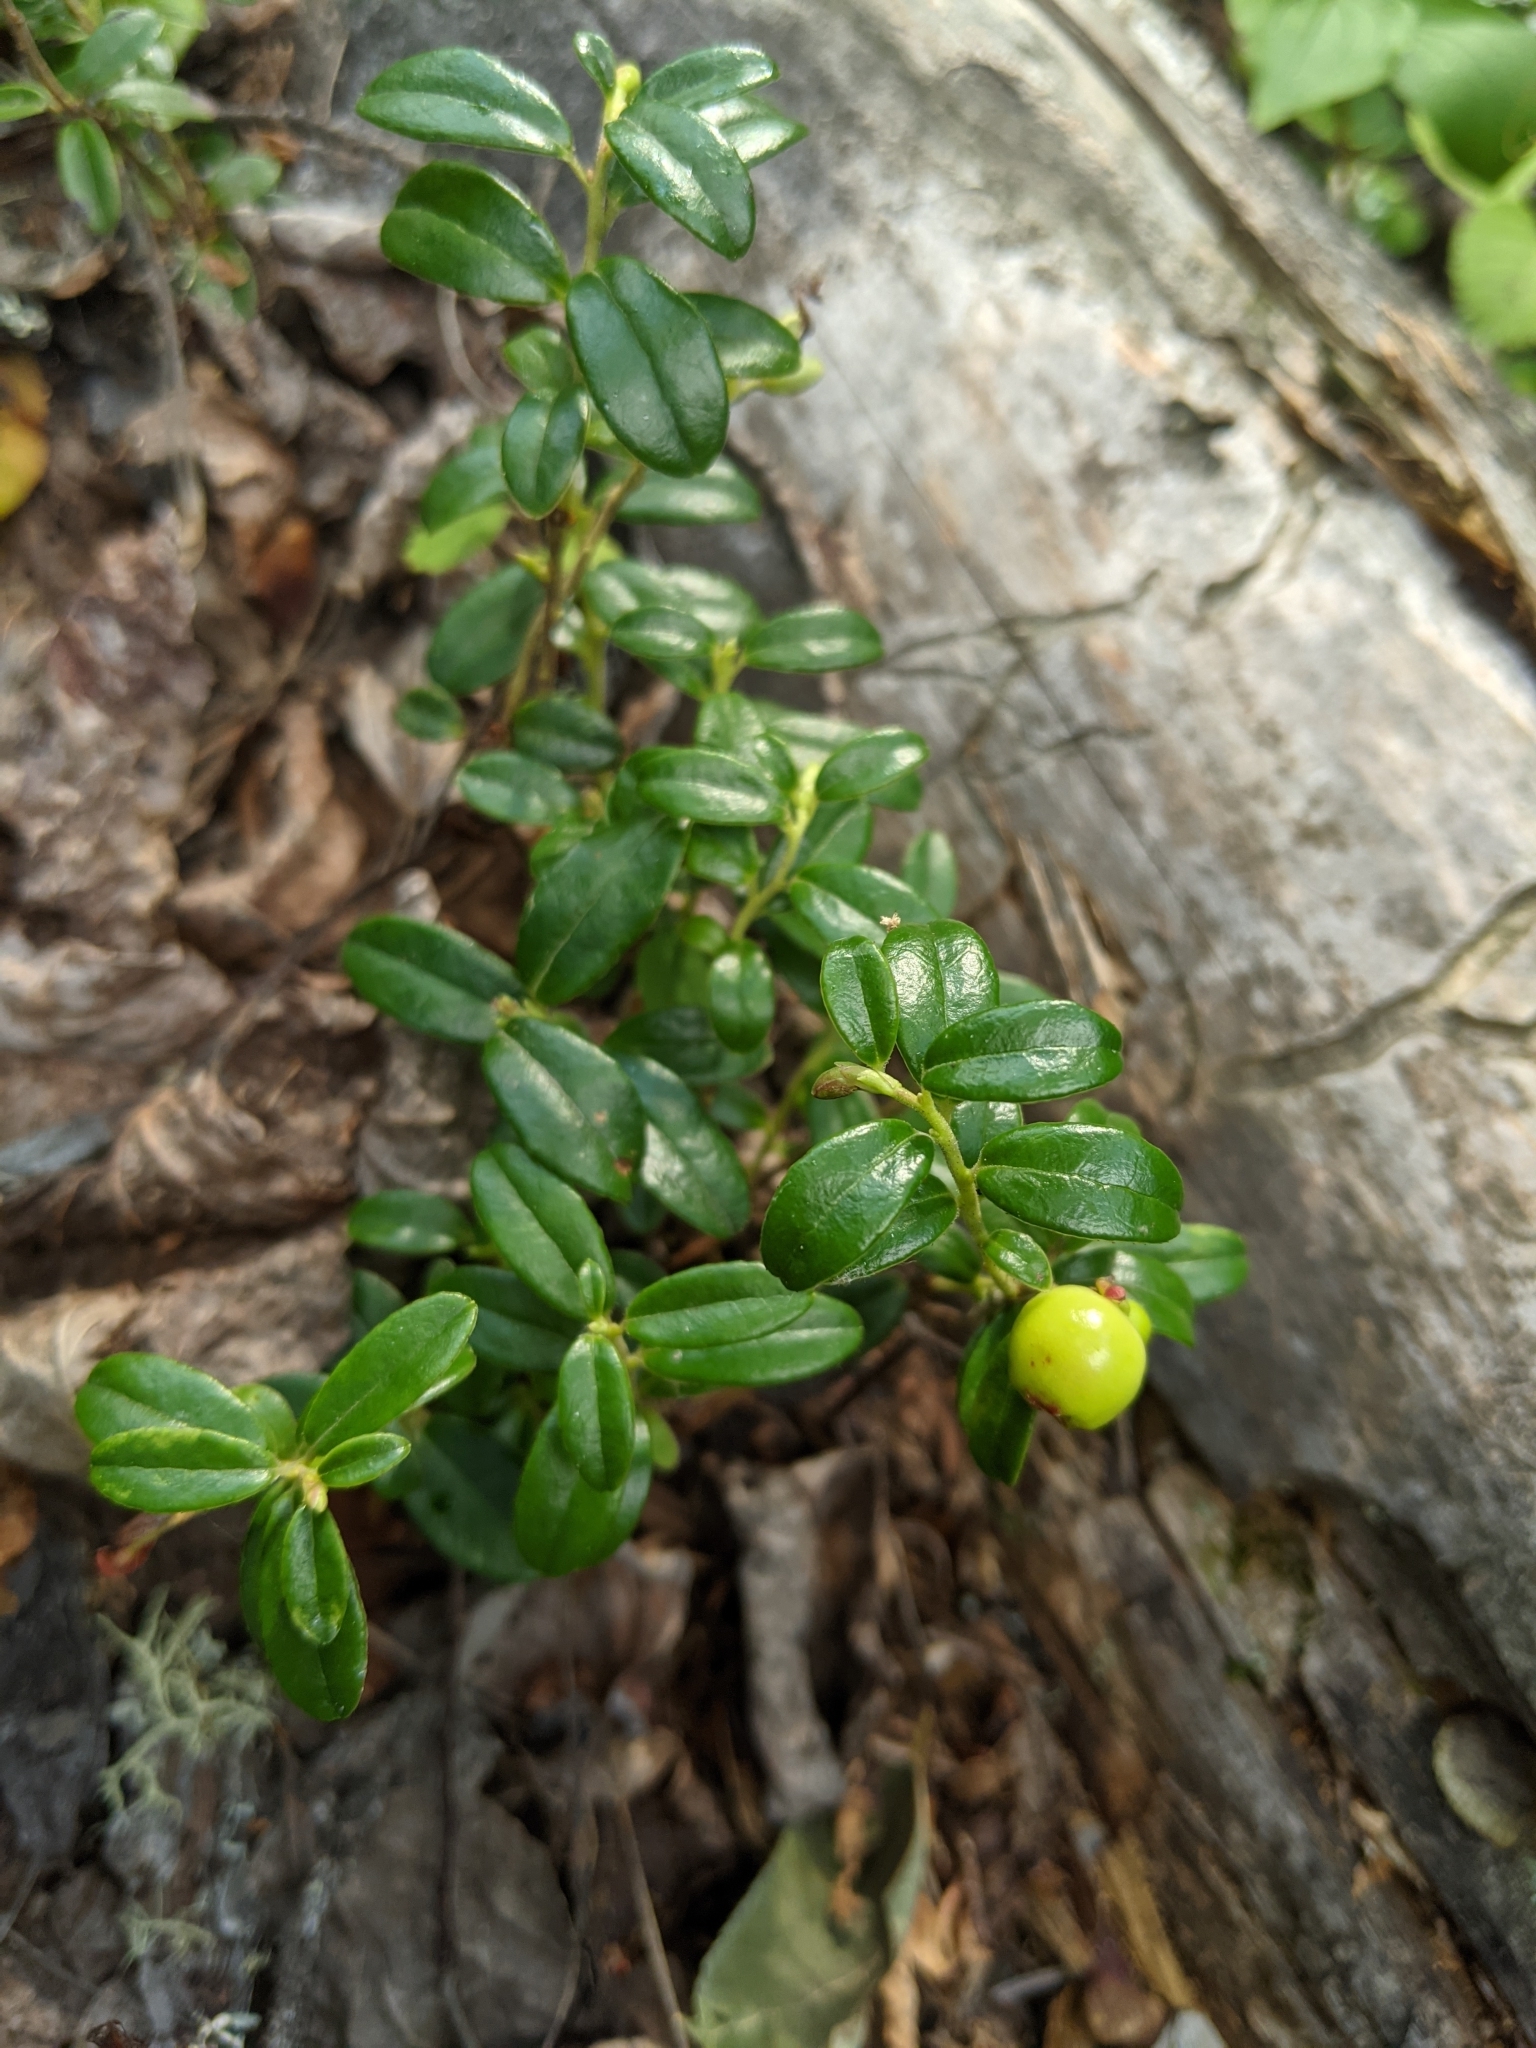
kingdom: Plantae
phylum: Tracheophyta
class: Magnoliopsida
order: Ericales
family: Ericaceae
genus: Vaccinium
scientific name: Vaccinium vitis-idaea
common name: Cowberry
